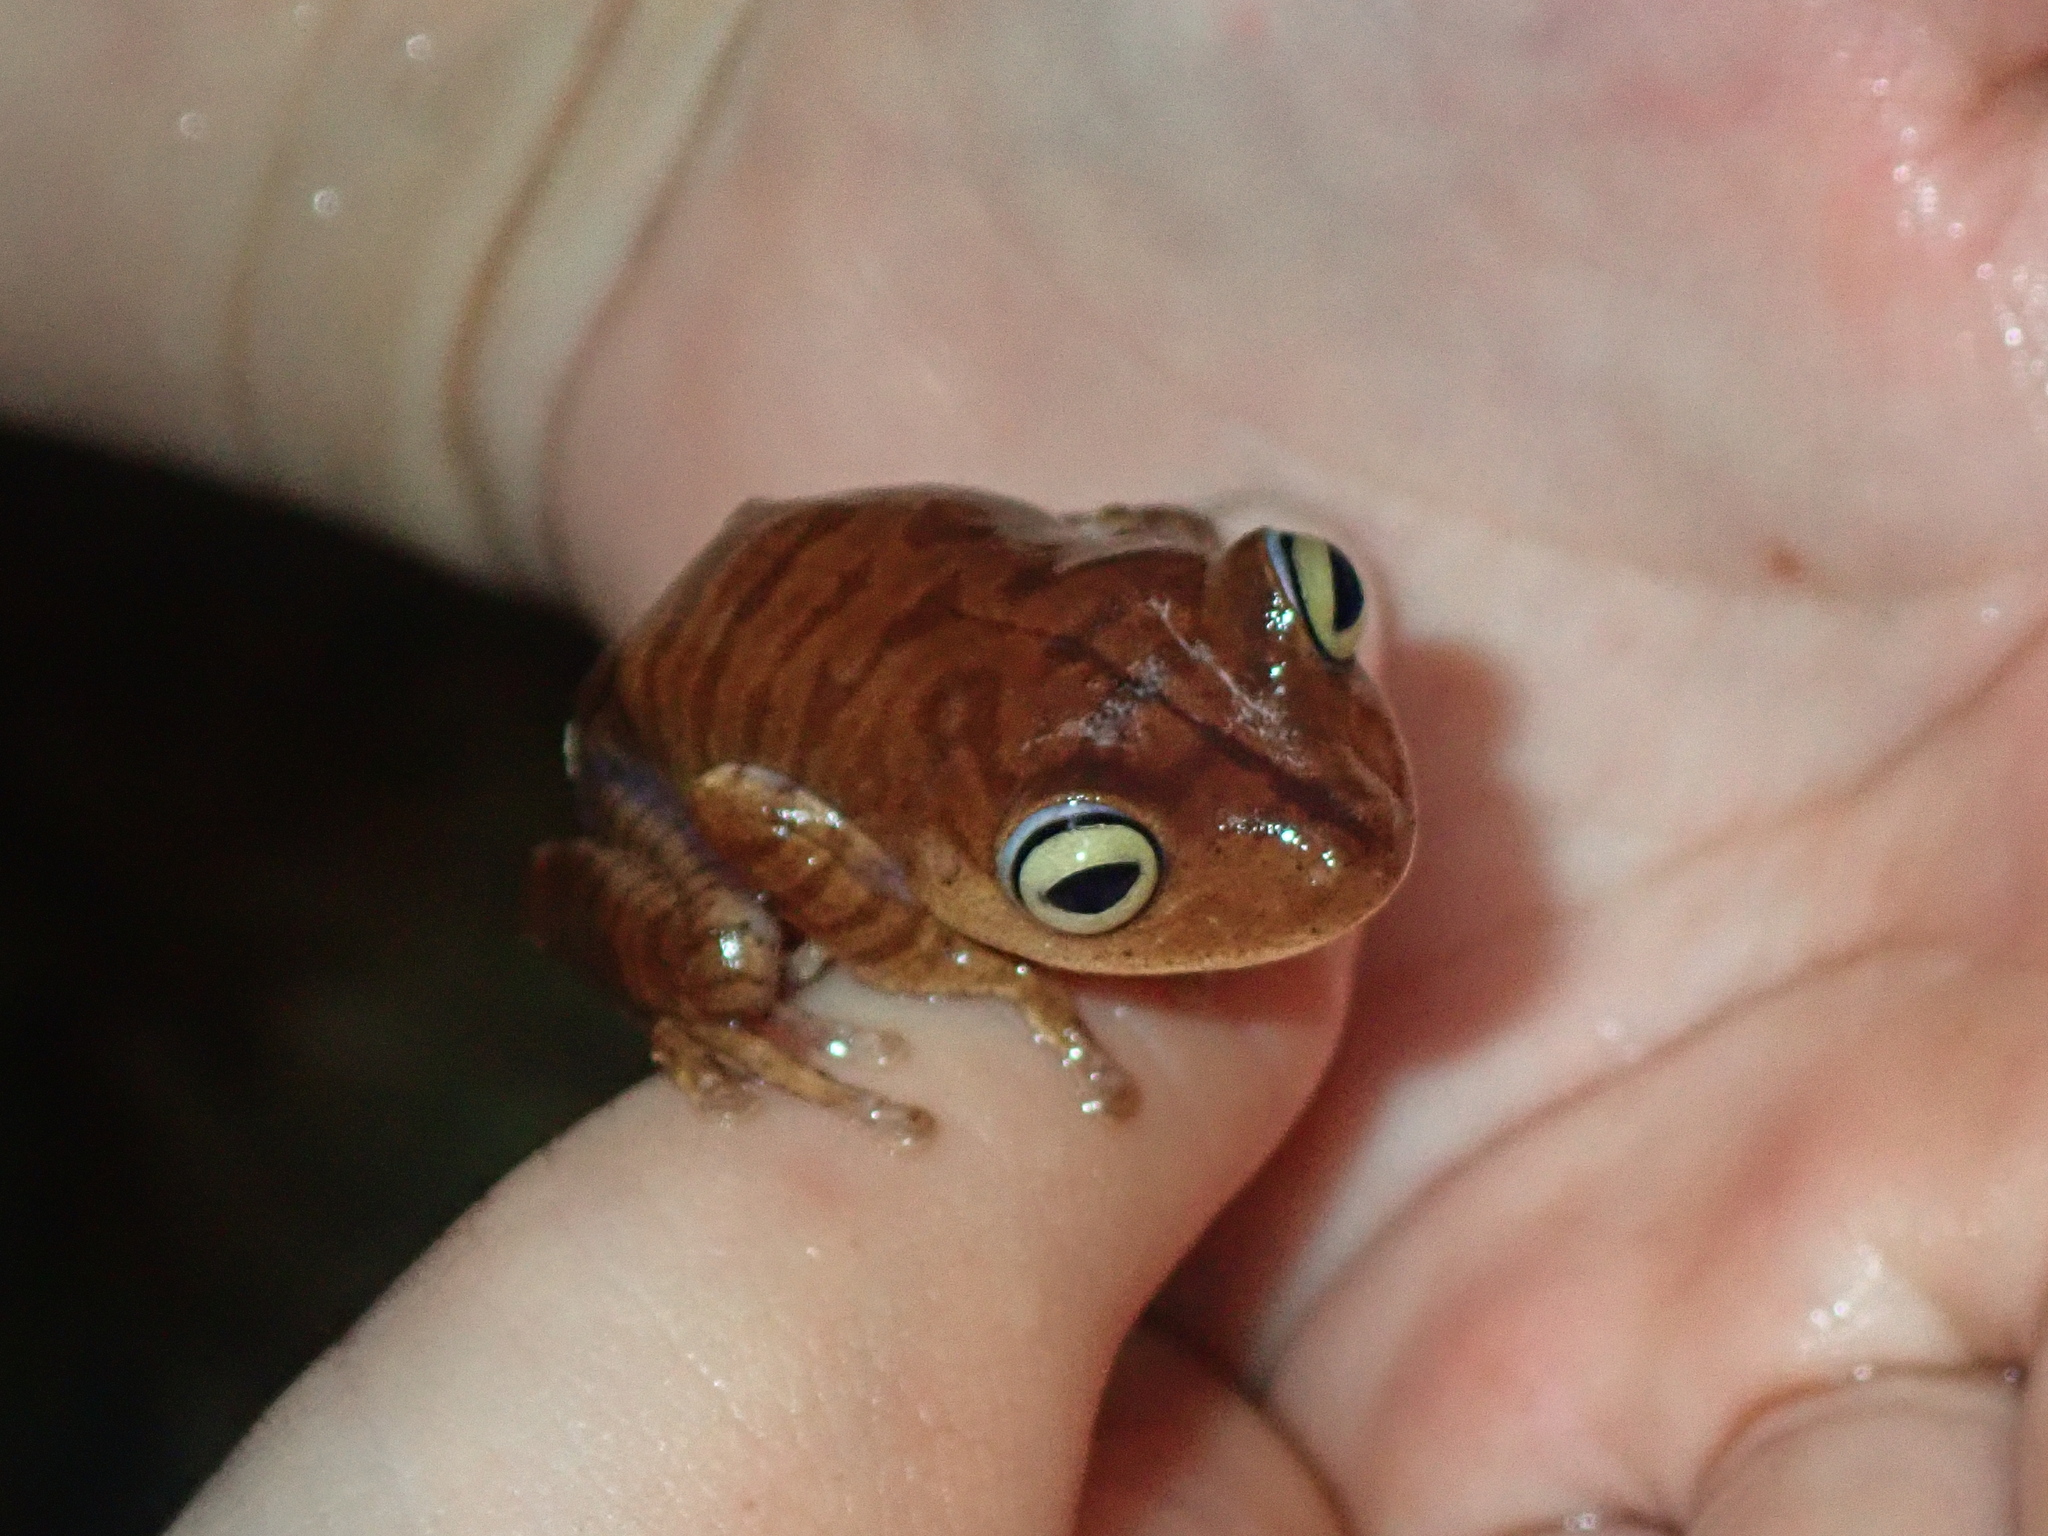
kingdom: Animalia
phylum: Chordata
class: Amphibia
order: Anura
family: Hylidae
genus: Bokermannohyla
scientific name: Bokermannohyla hylax
